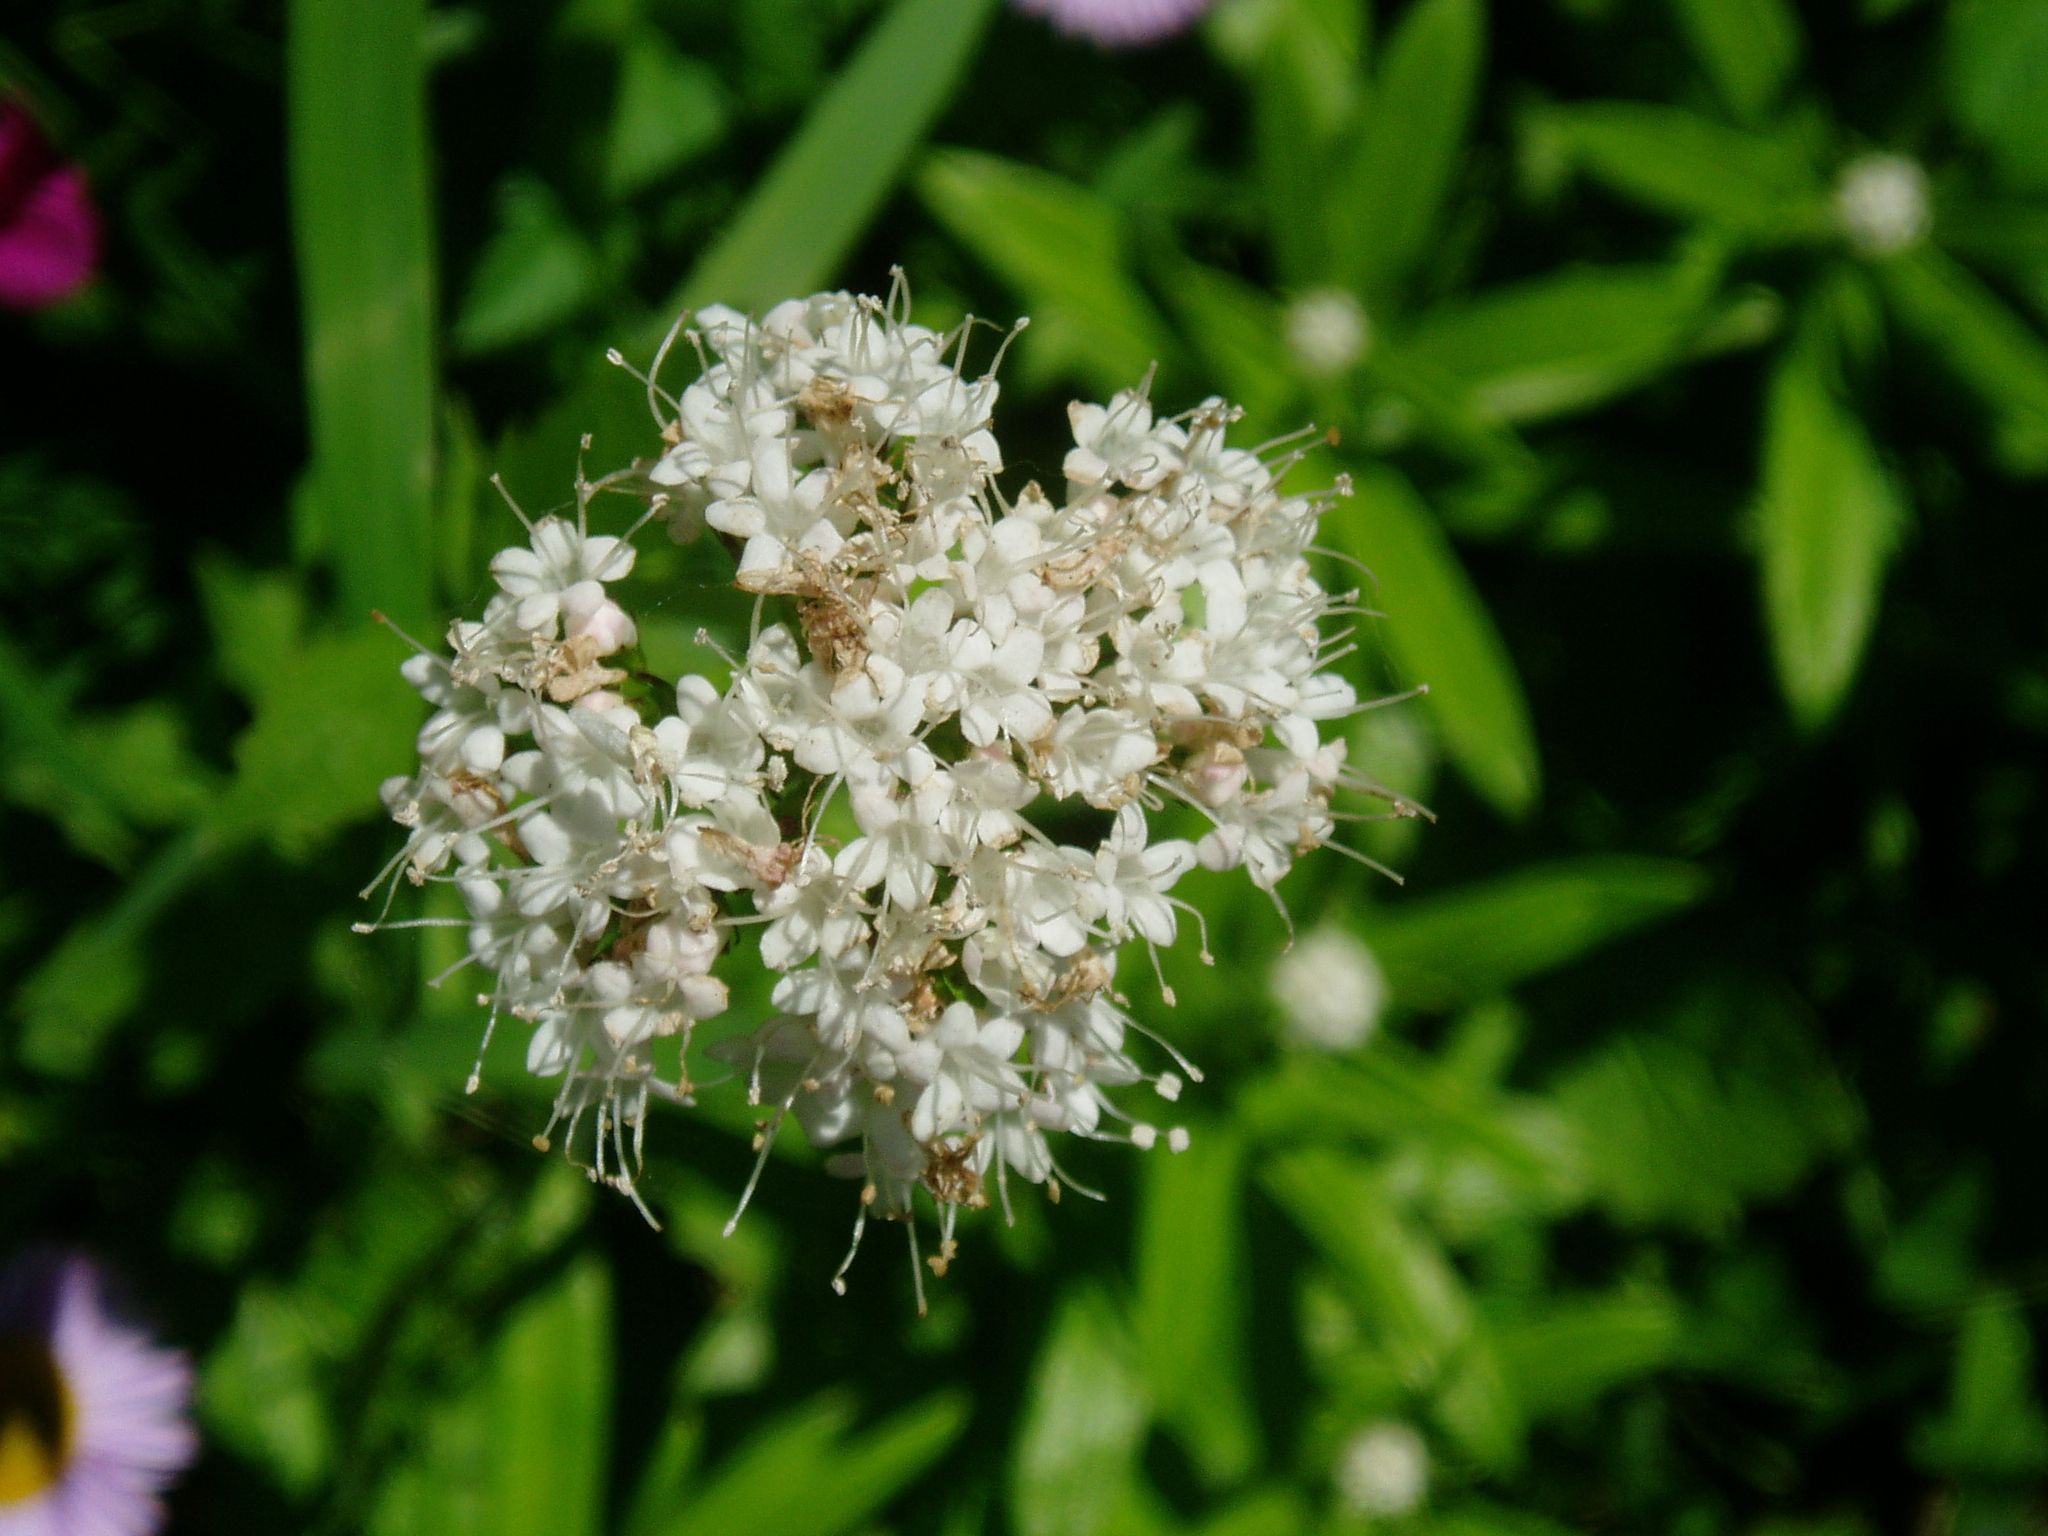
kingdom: Plantae
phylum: Tracheophyta
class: Magnoliopsida
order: Dipsacales
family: Caprifoliaceae
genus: Valeriana
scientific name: Valeriana sitchensis
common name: Pacific valerian
